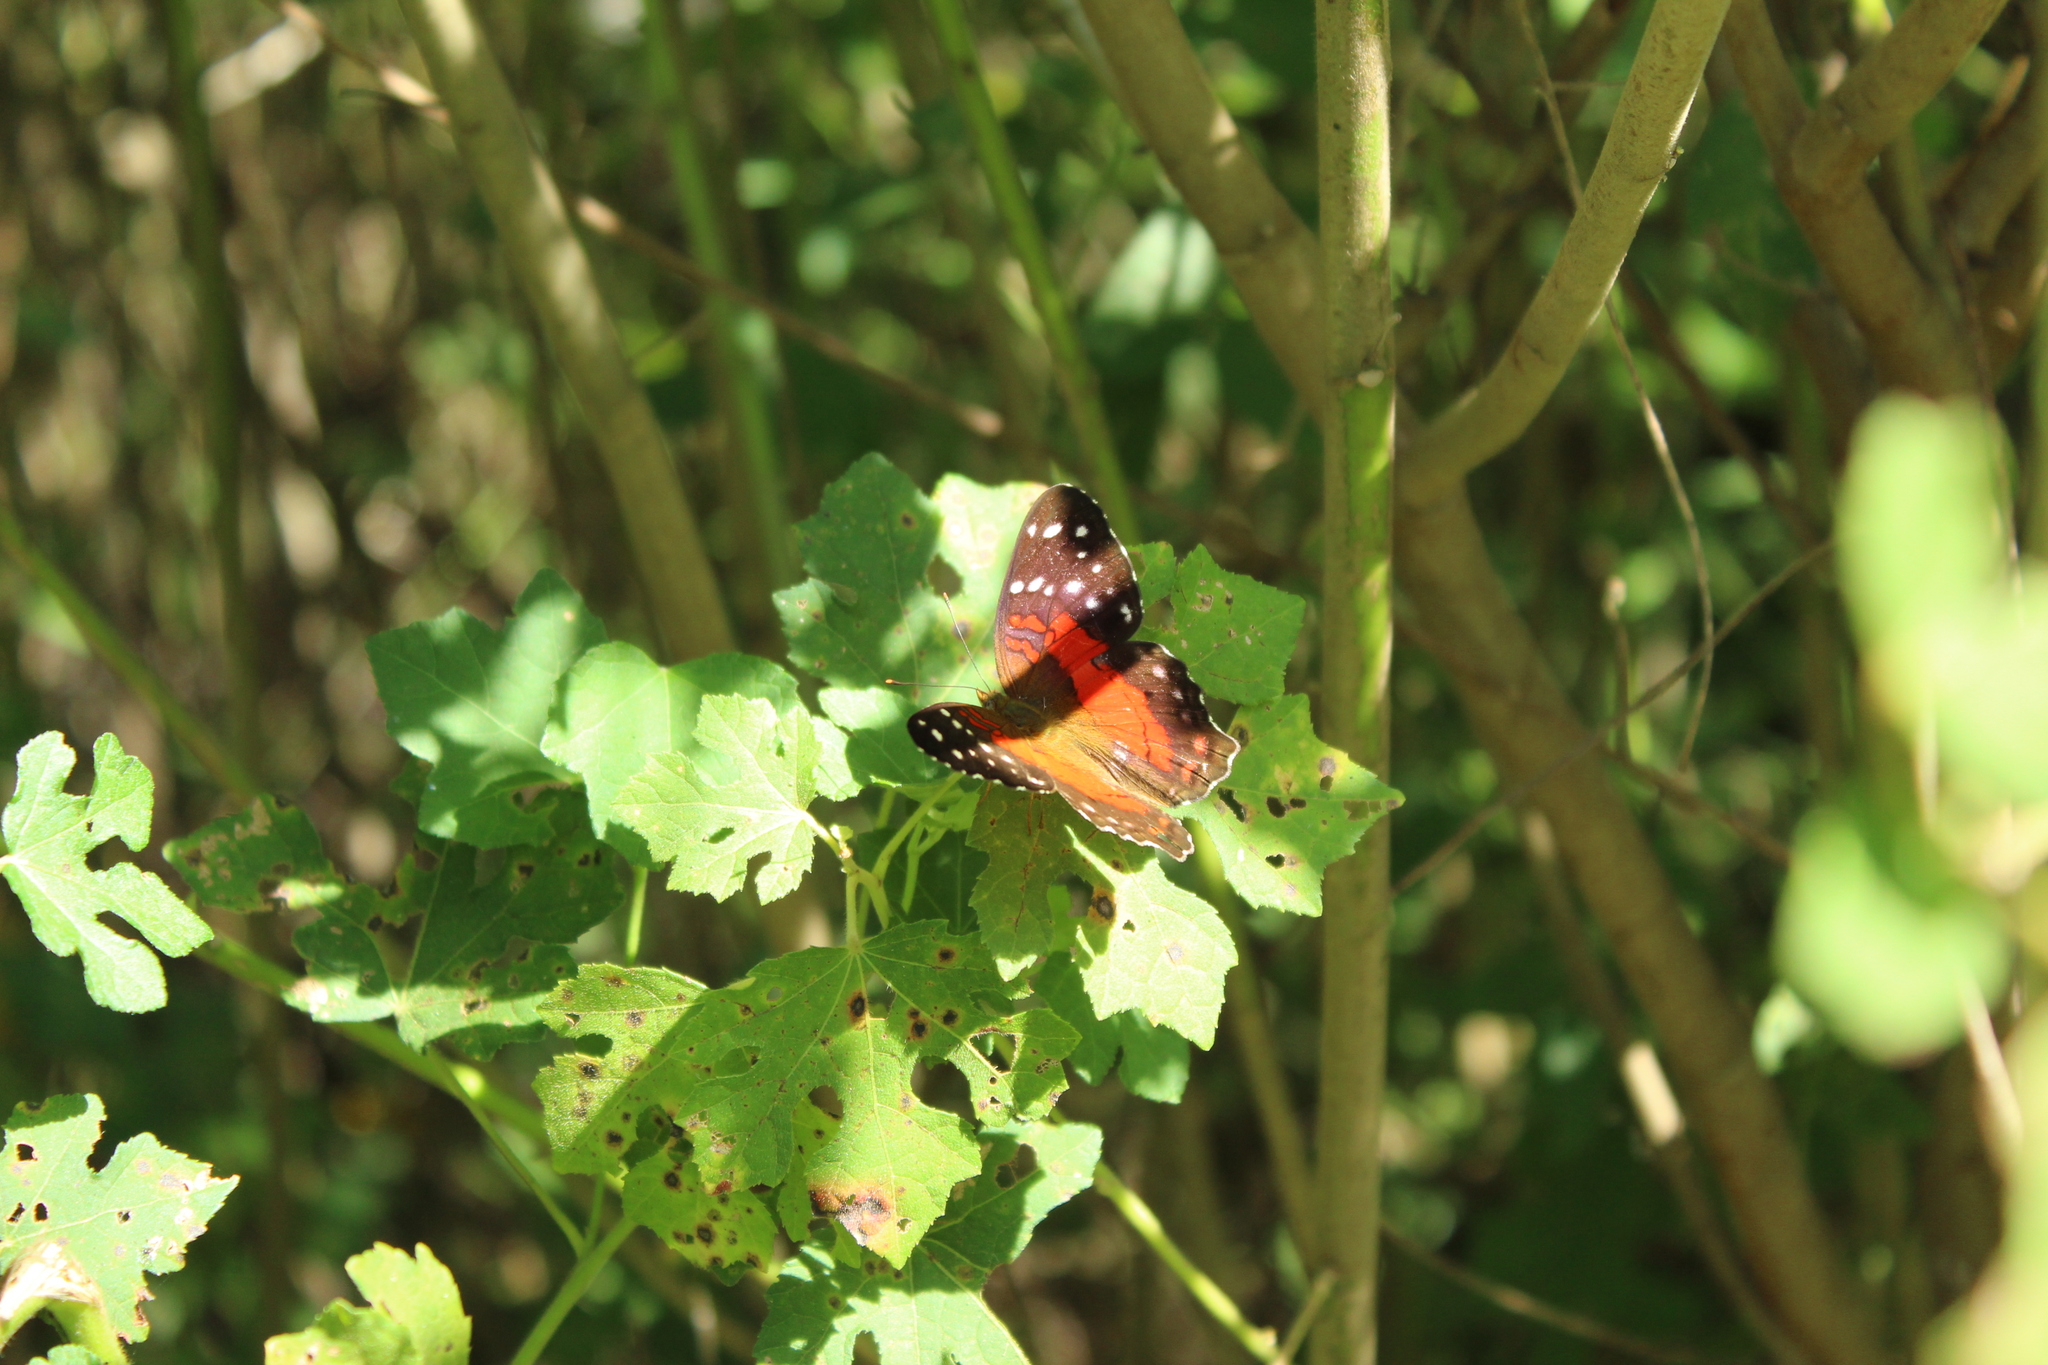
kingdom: Animalia
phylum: Arthropoda
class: Insecta
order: Lepidoptera
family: Nymphalidae
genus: Anartia
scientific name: Anartia amathea
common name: Red peacock
